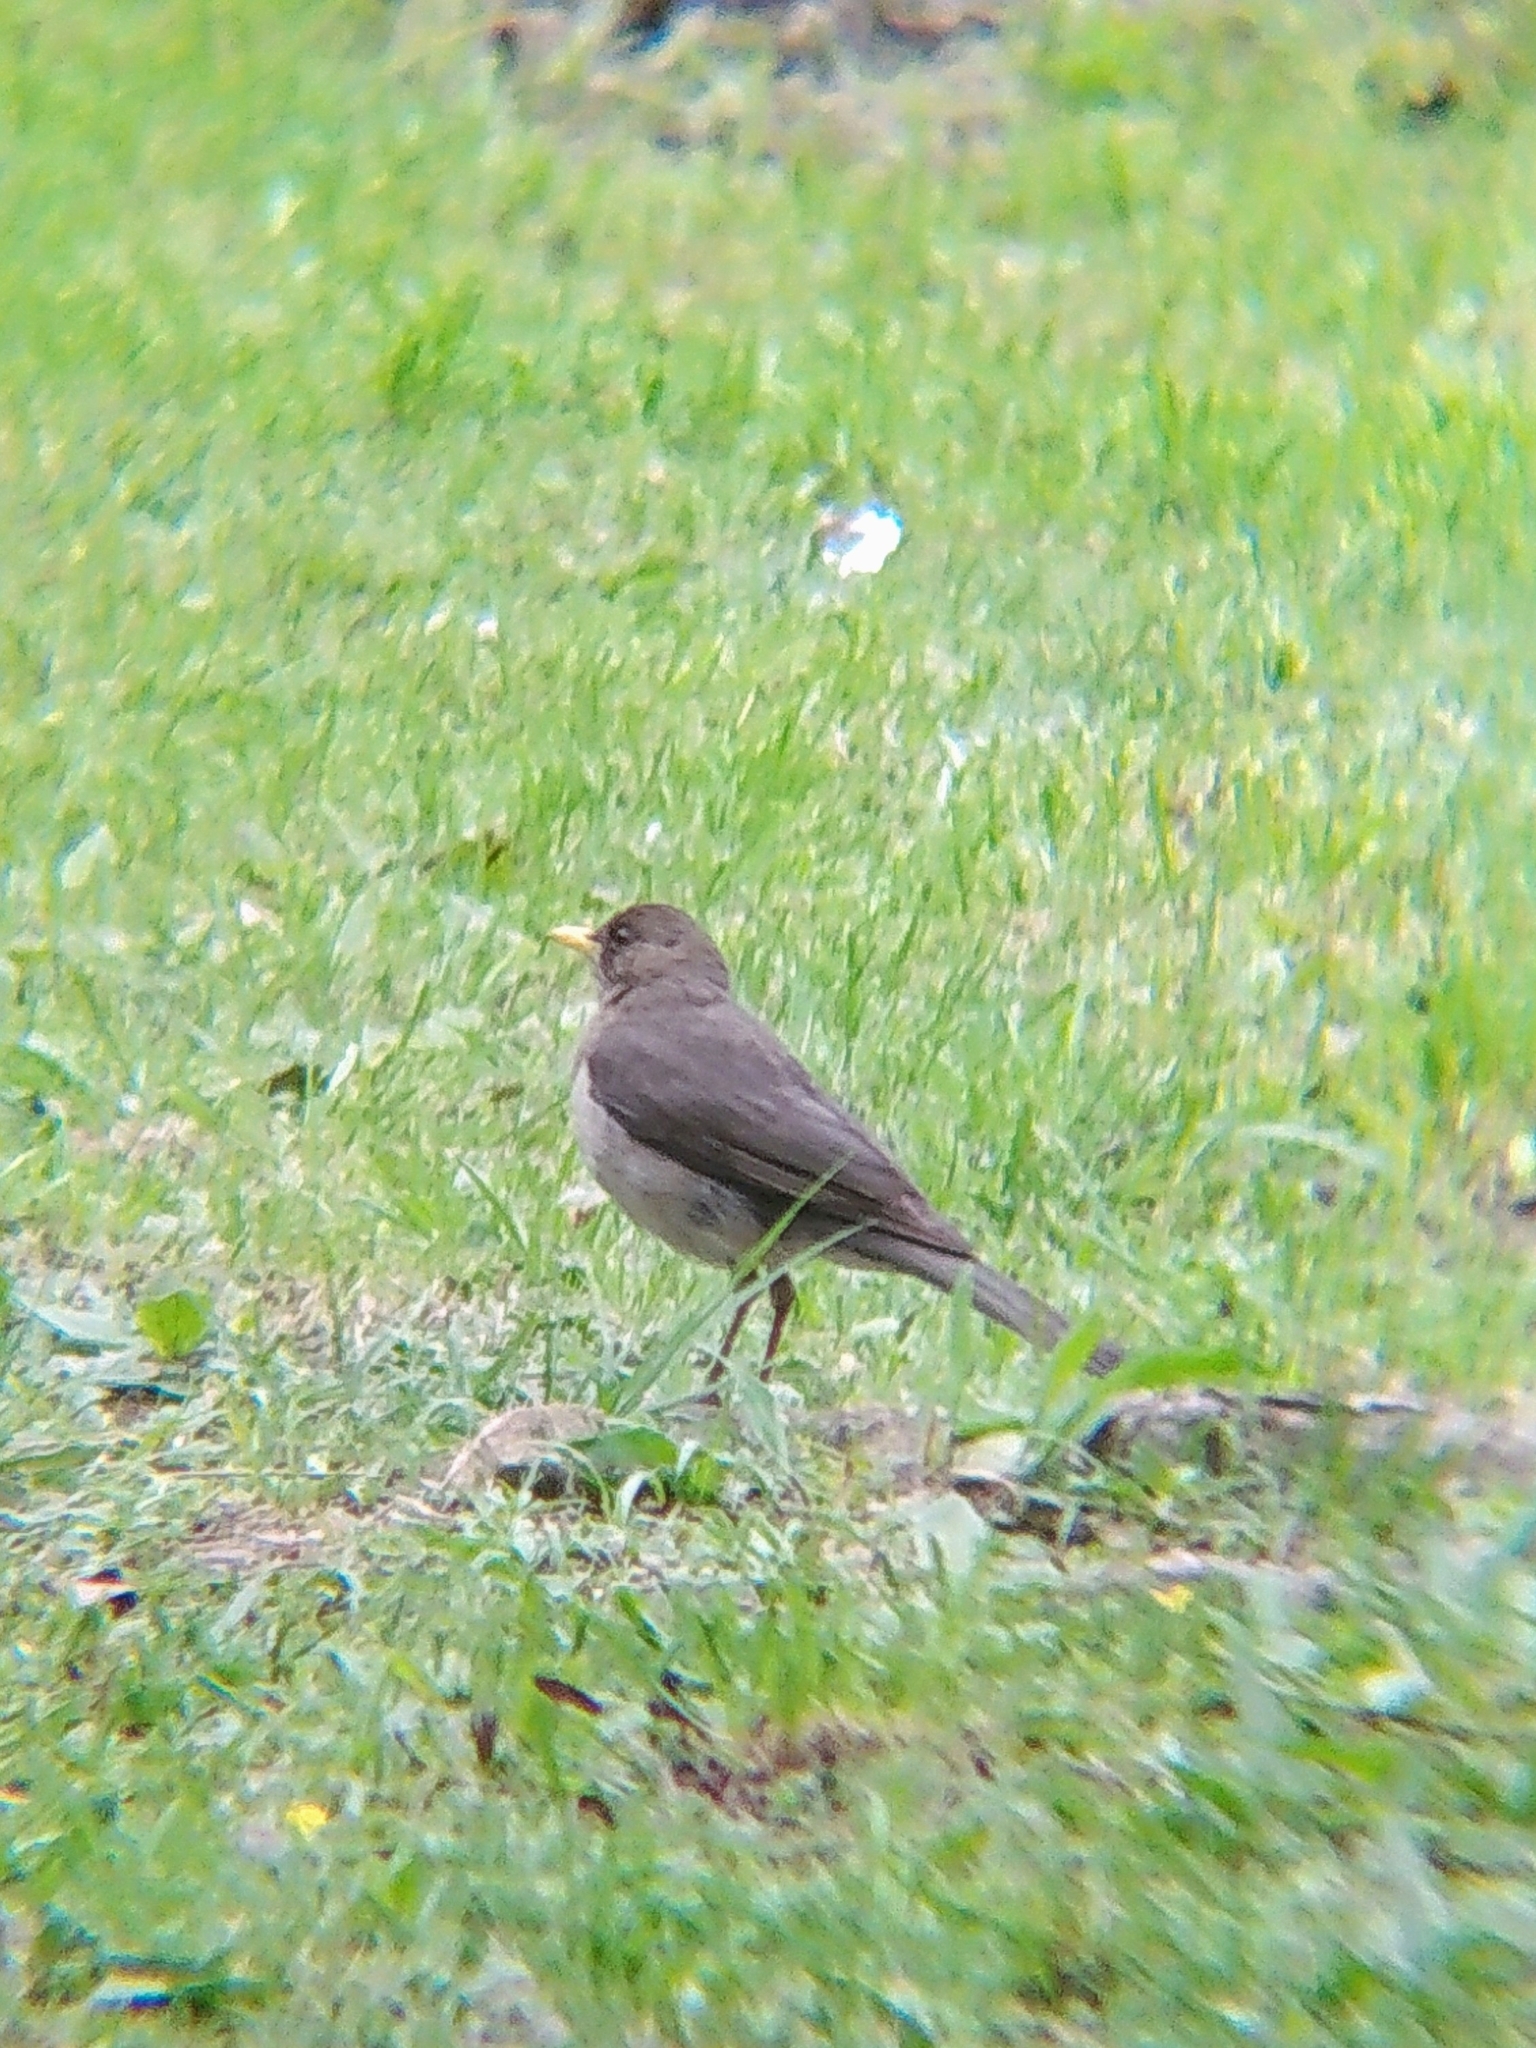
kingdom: Animalia
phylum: Chordata
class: Aves
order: Passeriformes
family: Turdidae
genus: Turdus
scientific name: Turdus amaurochalinus
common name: Creamy-bellied thrush
